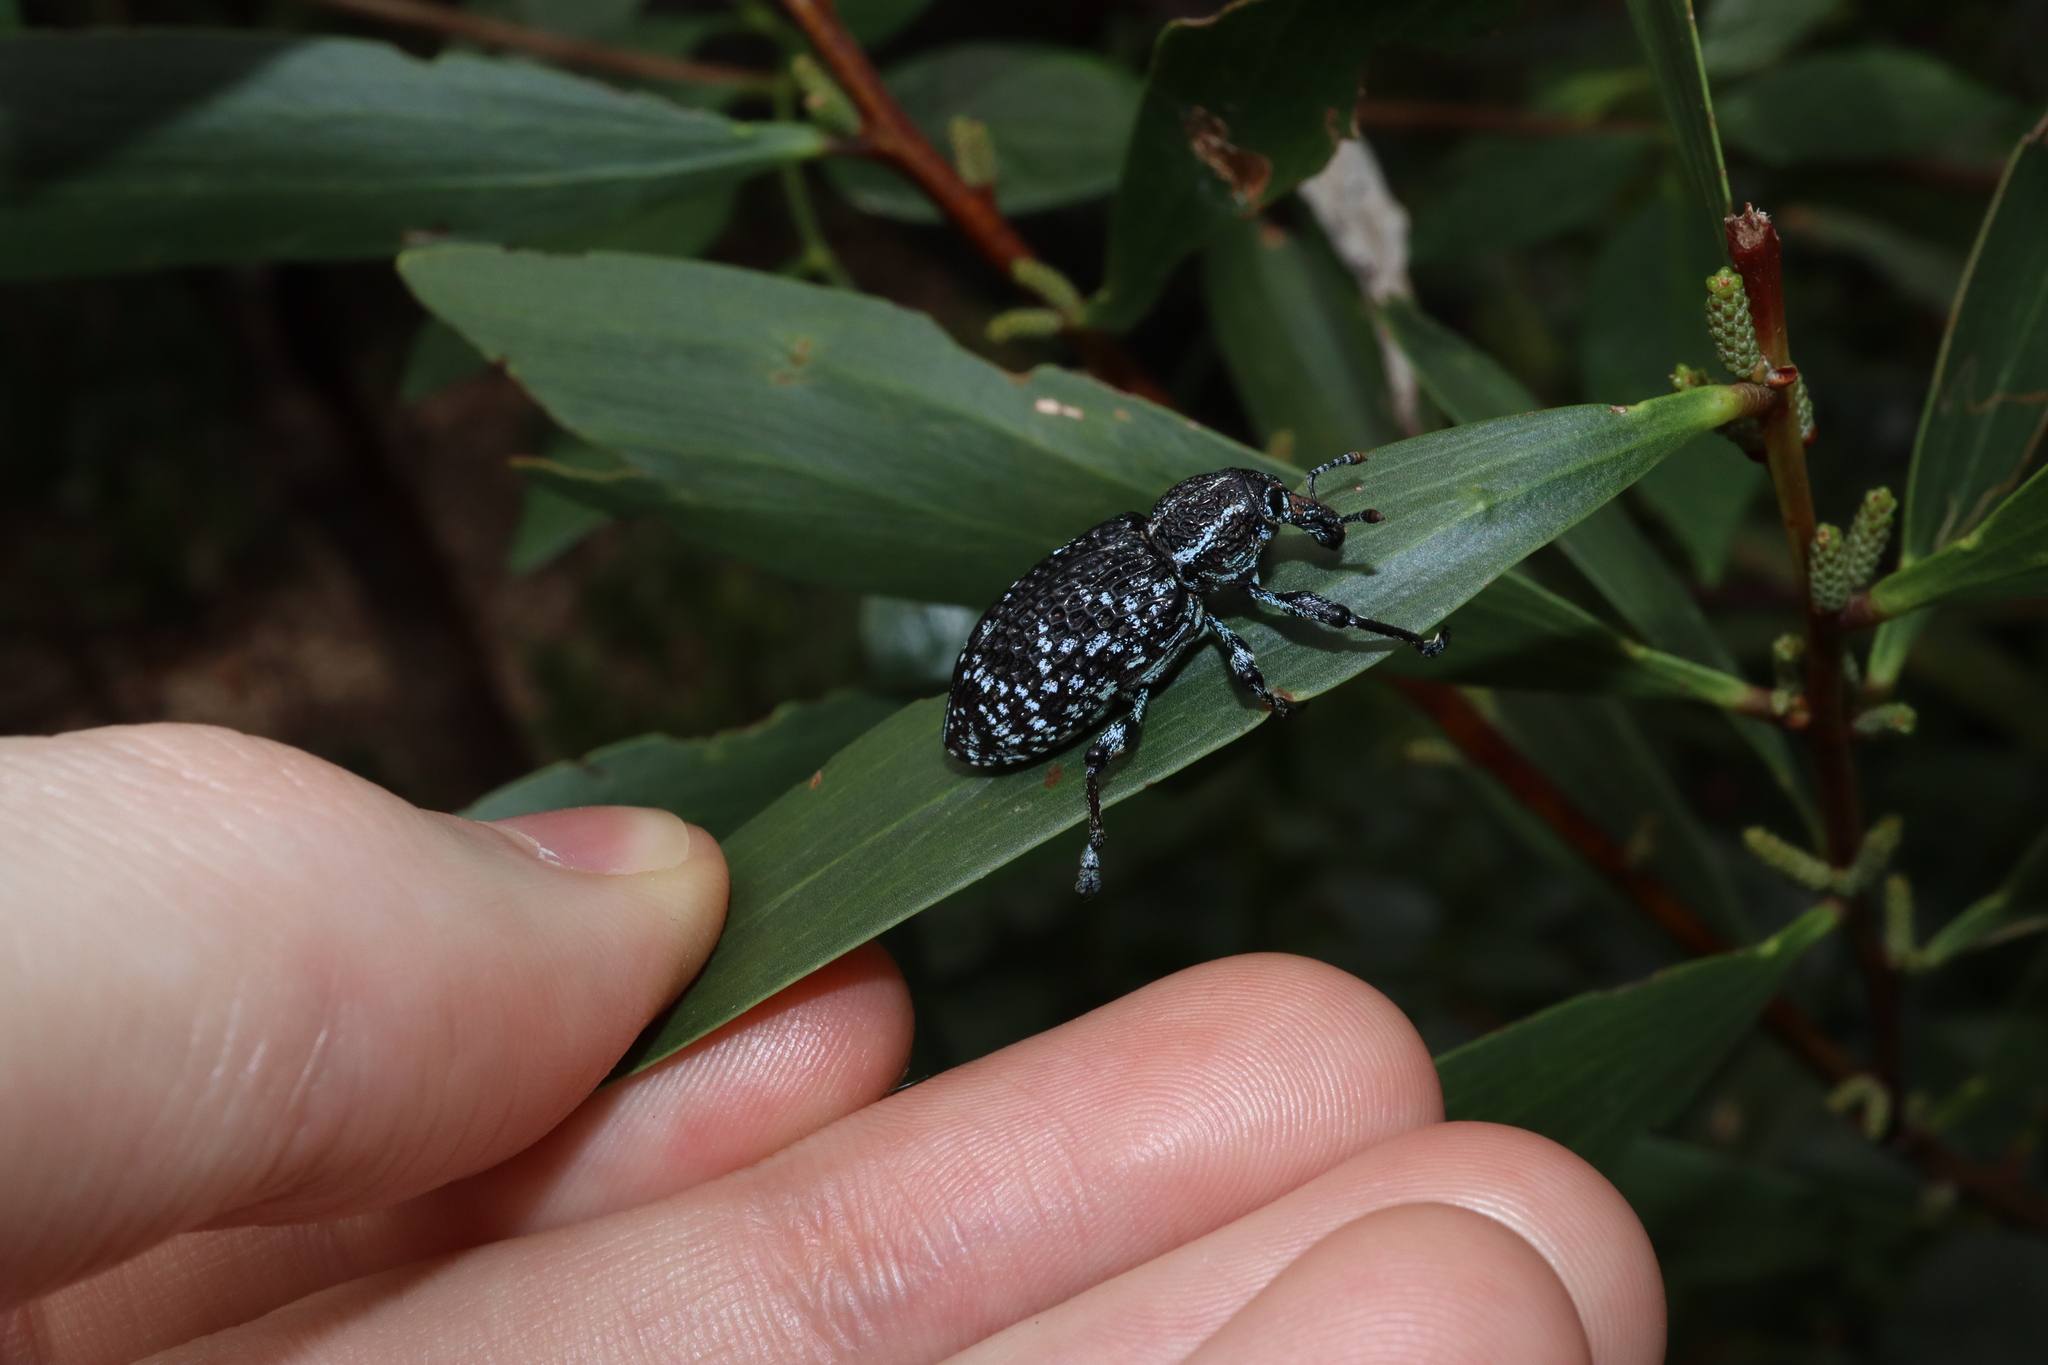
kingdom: Animalia
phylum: Arthropoda
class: Insecta
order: Coleoptera
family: Curculionidae
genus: Chrysolopus
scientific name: Chrysolopus spectabilis
